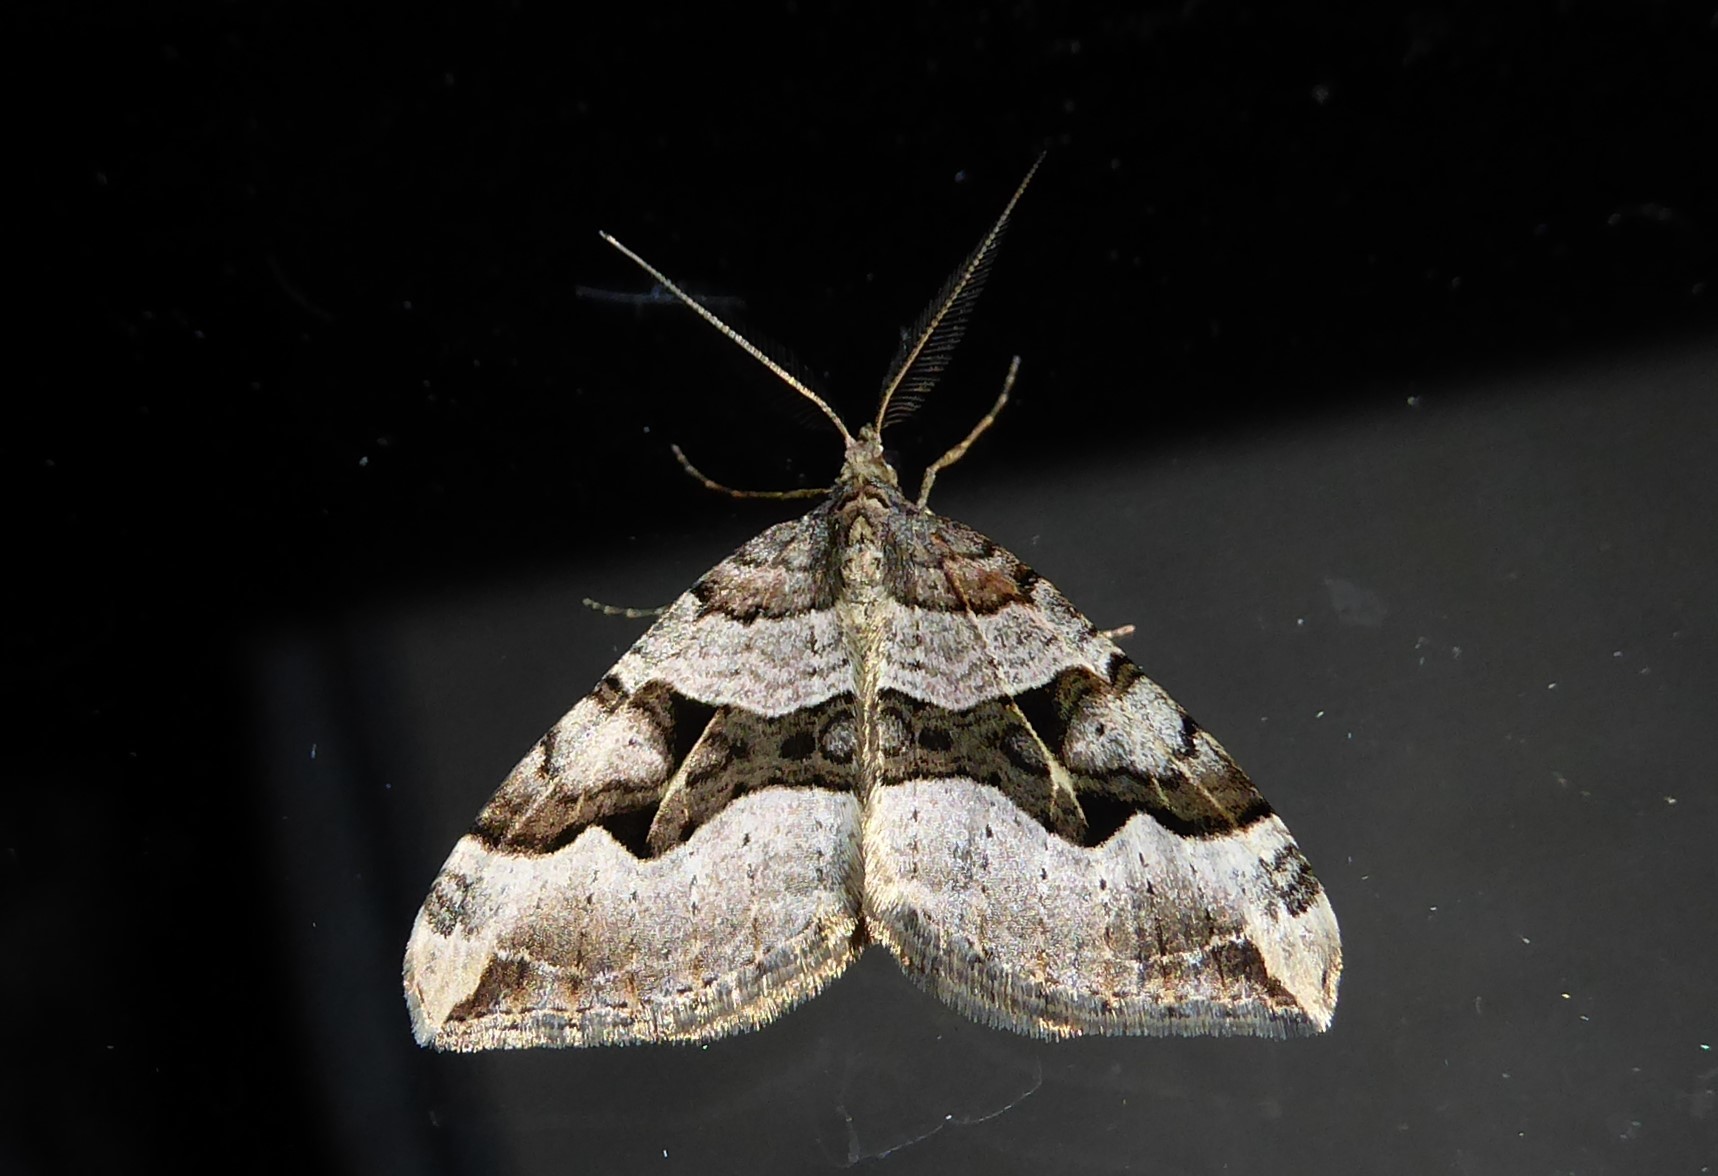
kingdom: Animalia
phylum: Arthropoda
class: Insecta
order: Lepidoptera
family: Geometridae
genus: Xanthorhoe
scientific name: Xanthorhoe semifissata
